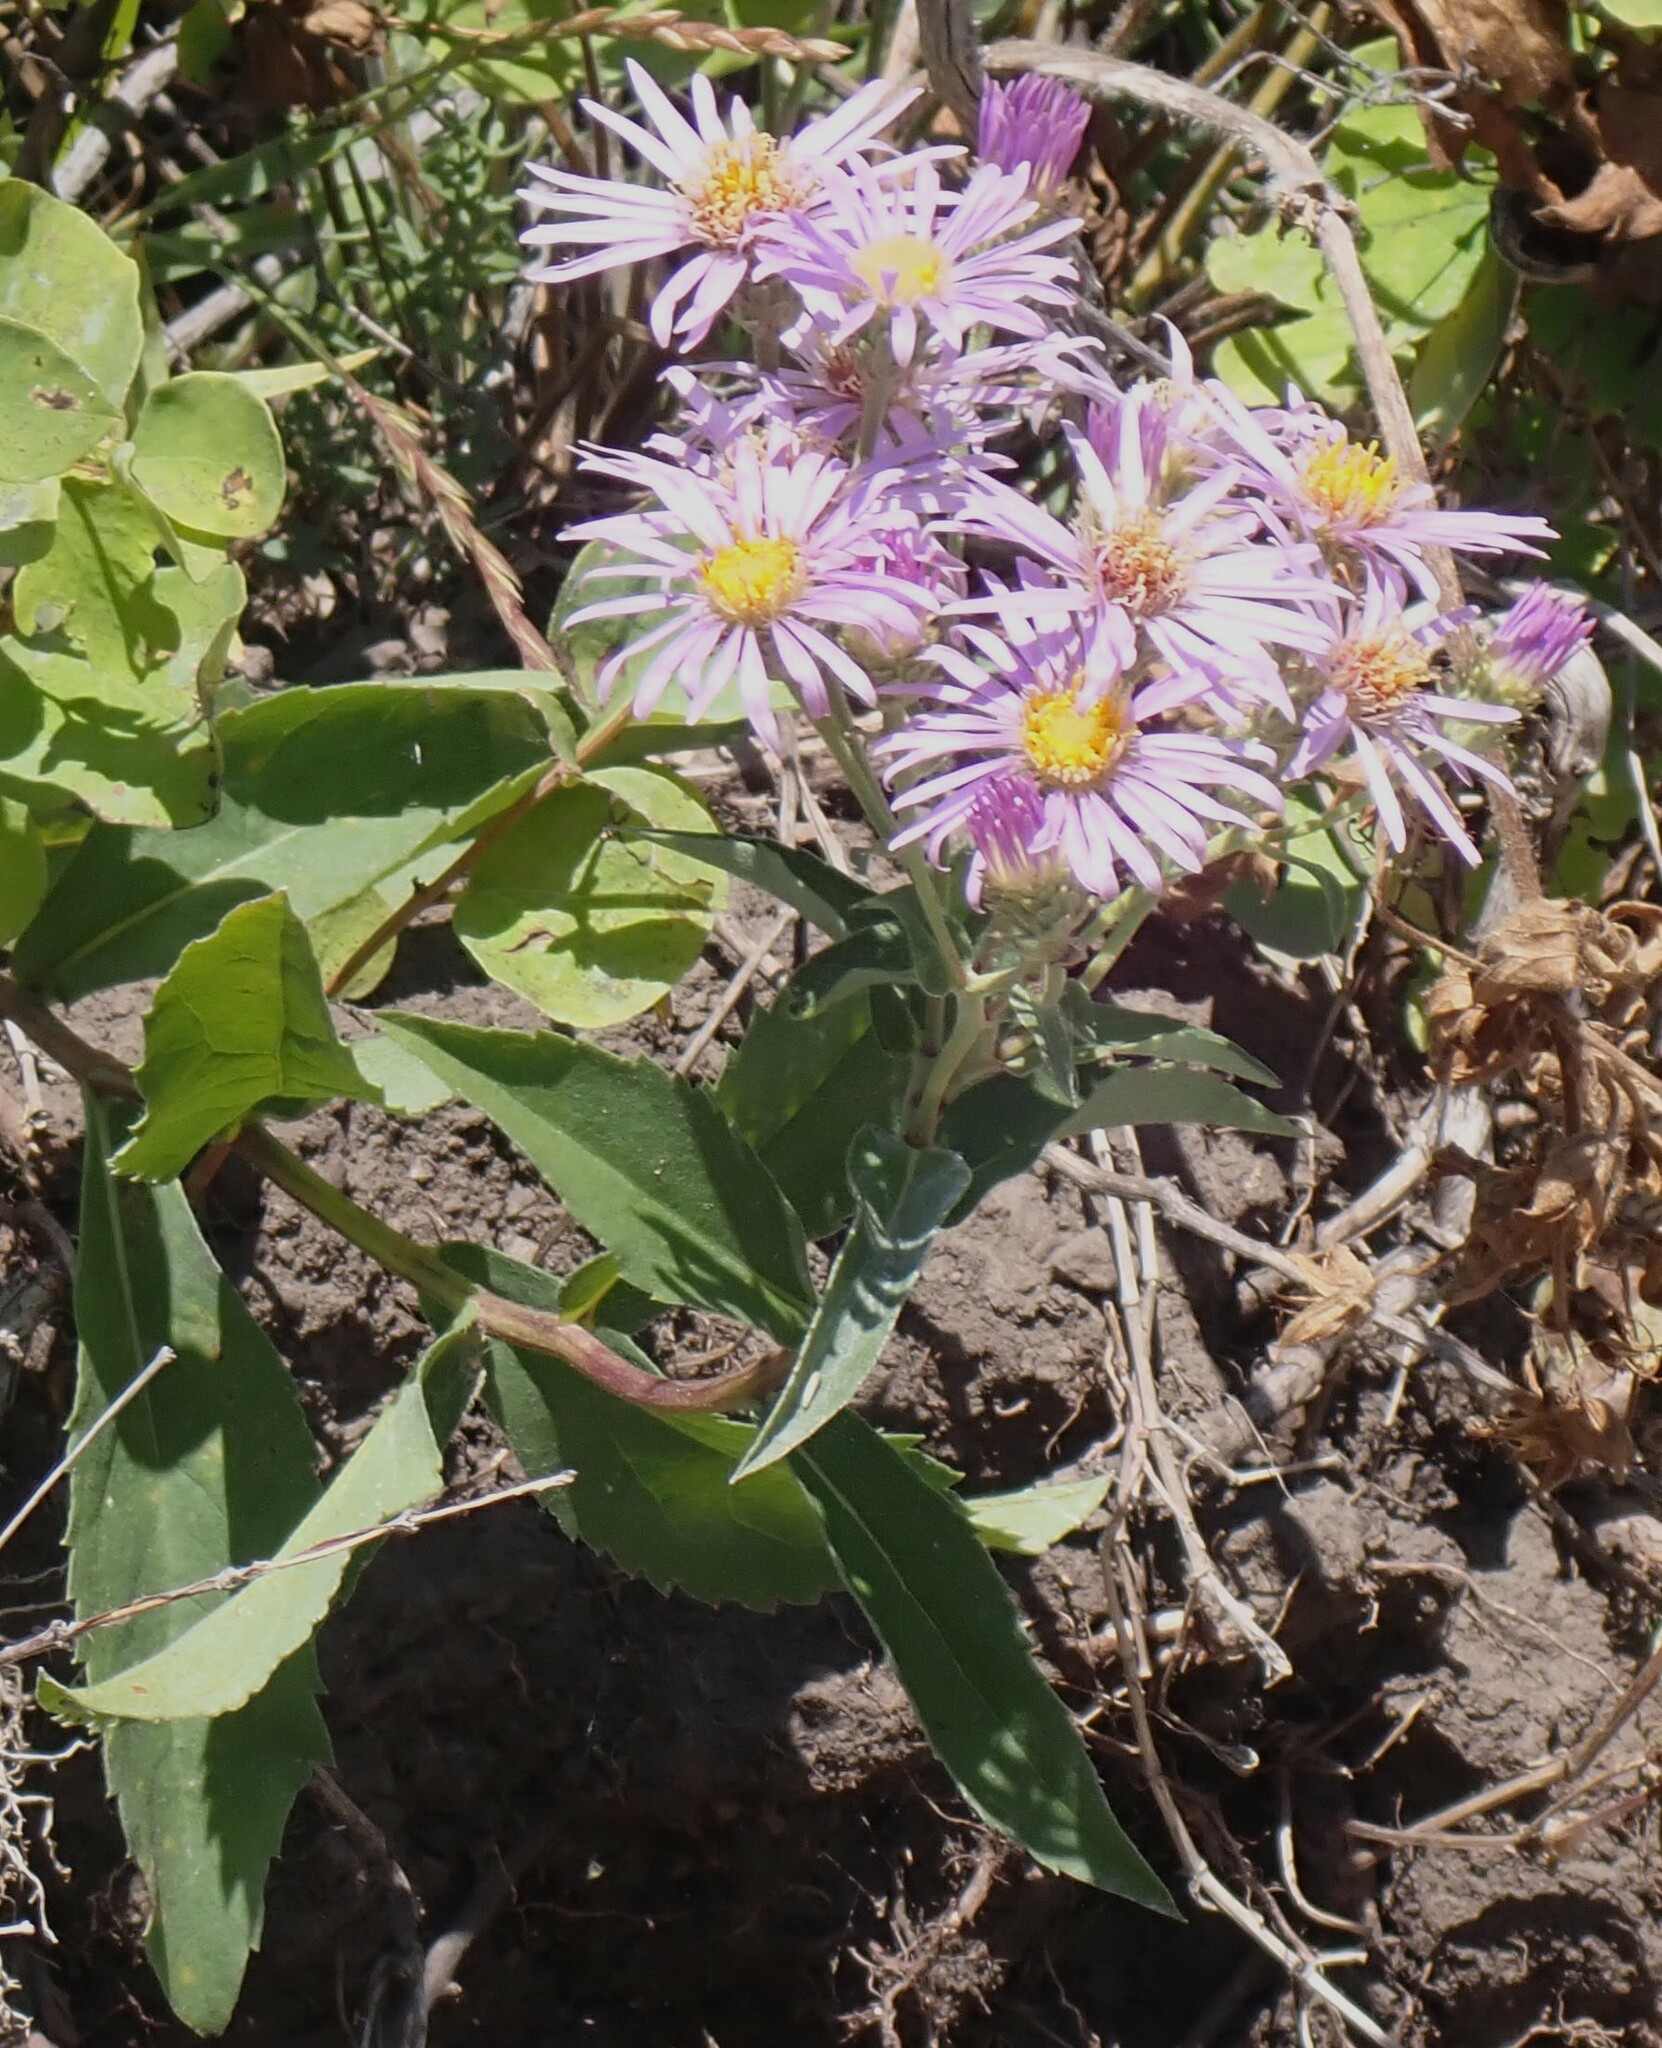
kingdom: Plantae
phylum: Tracheophyta
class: Magnoliopsida
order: Asterales
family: Asteraceae
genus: Eurybia
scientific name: Eurybia conspicua
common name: Showy aster
